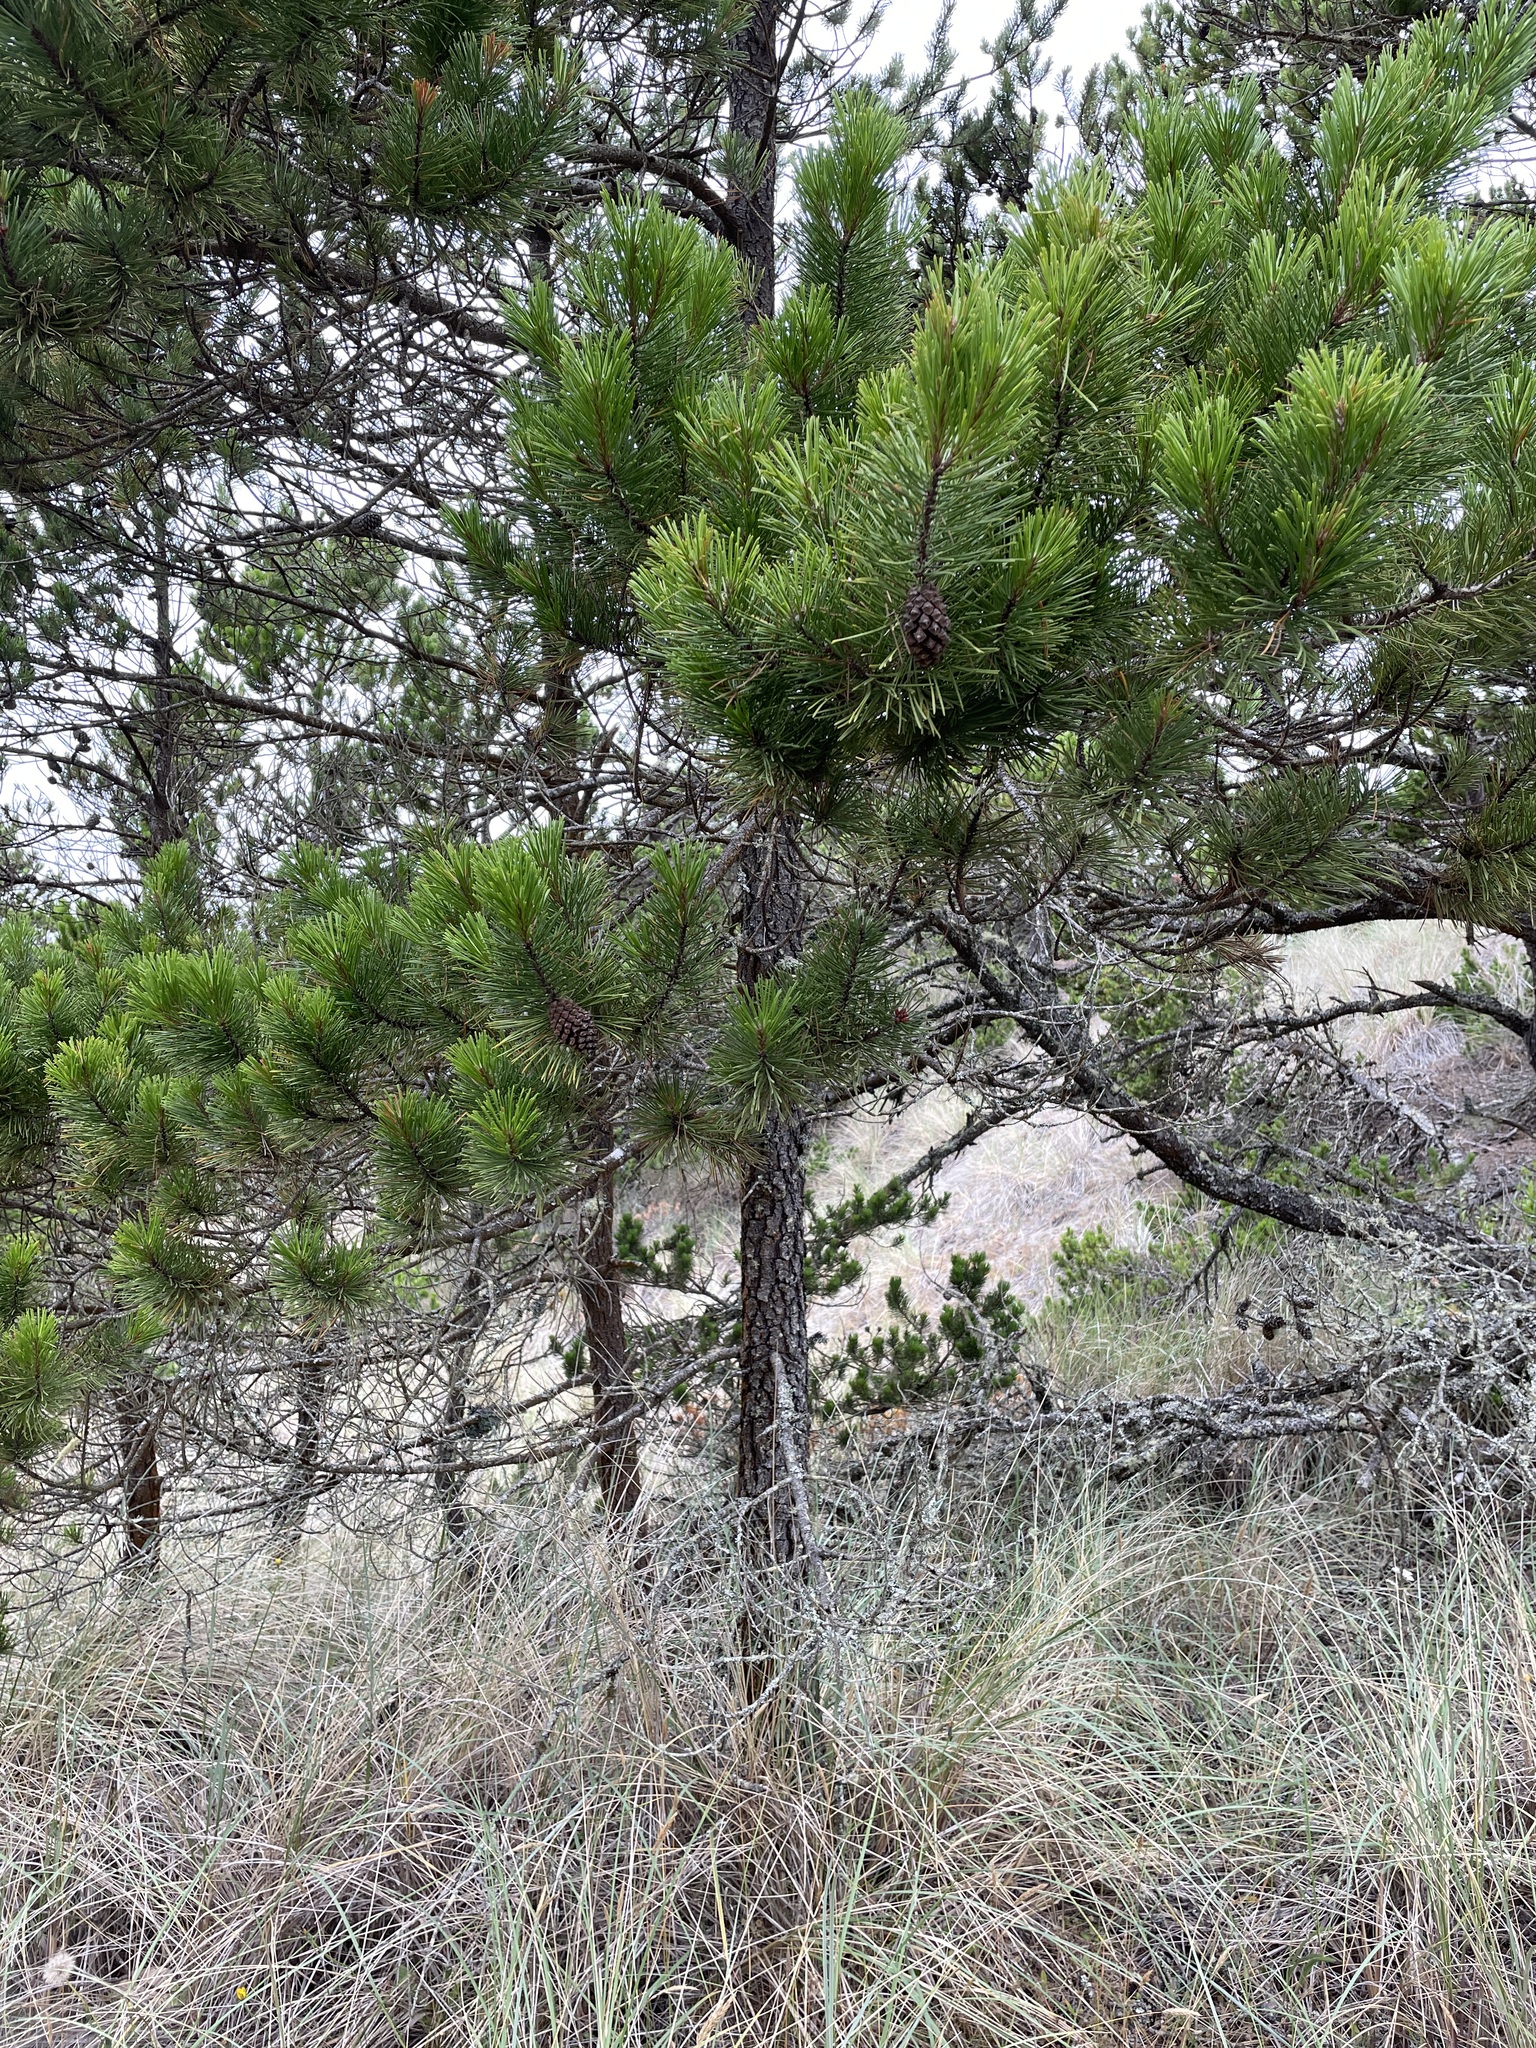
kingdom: Plantae
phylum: Tracheophyta
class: Pinopsida
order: Pinales
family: Pinaceae
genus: Pinus
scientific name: Pinus contorta
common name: Lodgepole pine
